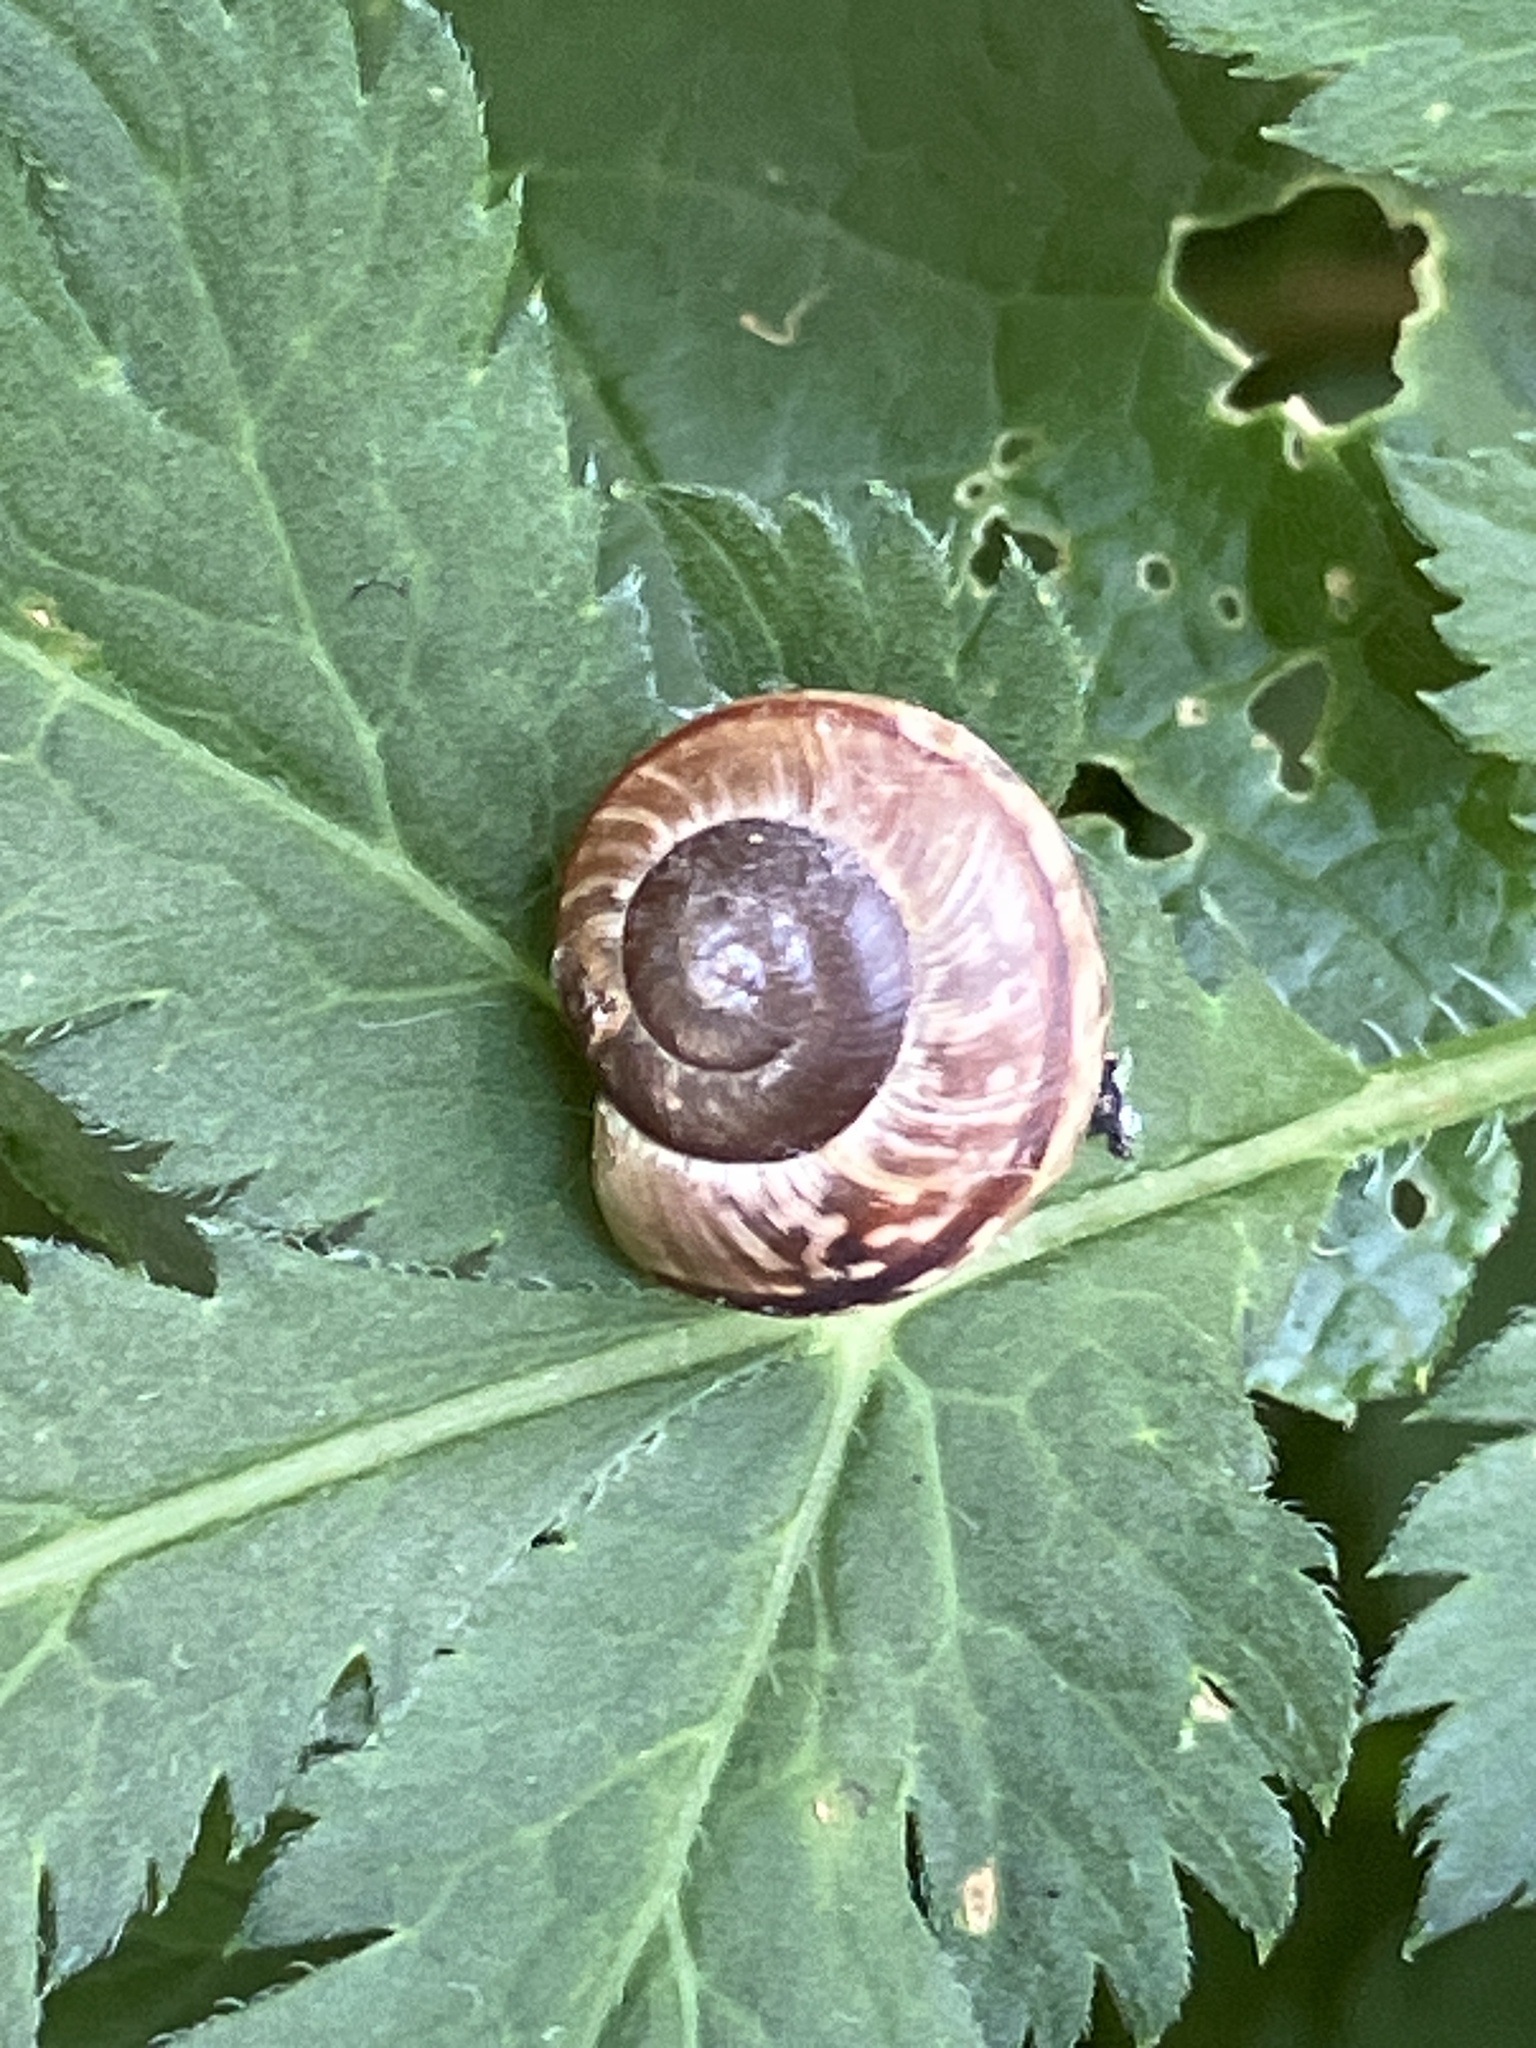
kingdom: Animalia
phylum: Mollusca
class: Gastropoda
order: Stylommatophora
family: Helicidae
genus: Arianta
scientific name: Arianta arbustorum
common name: Copse snail
